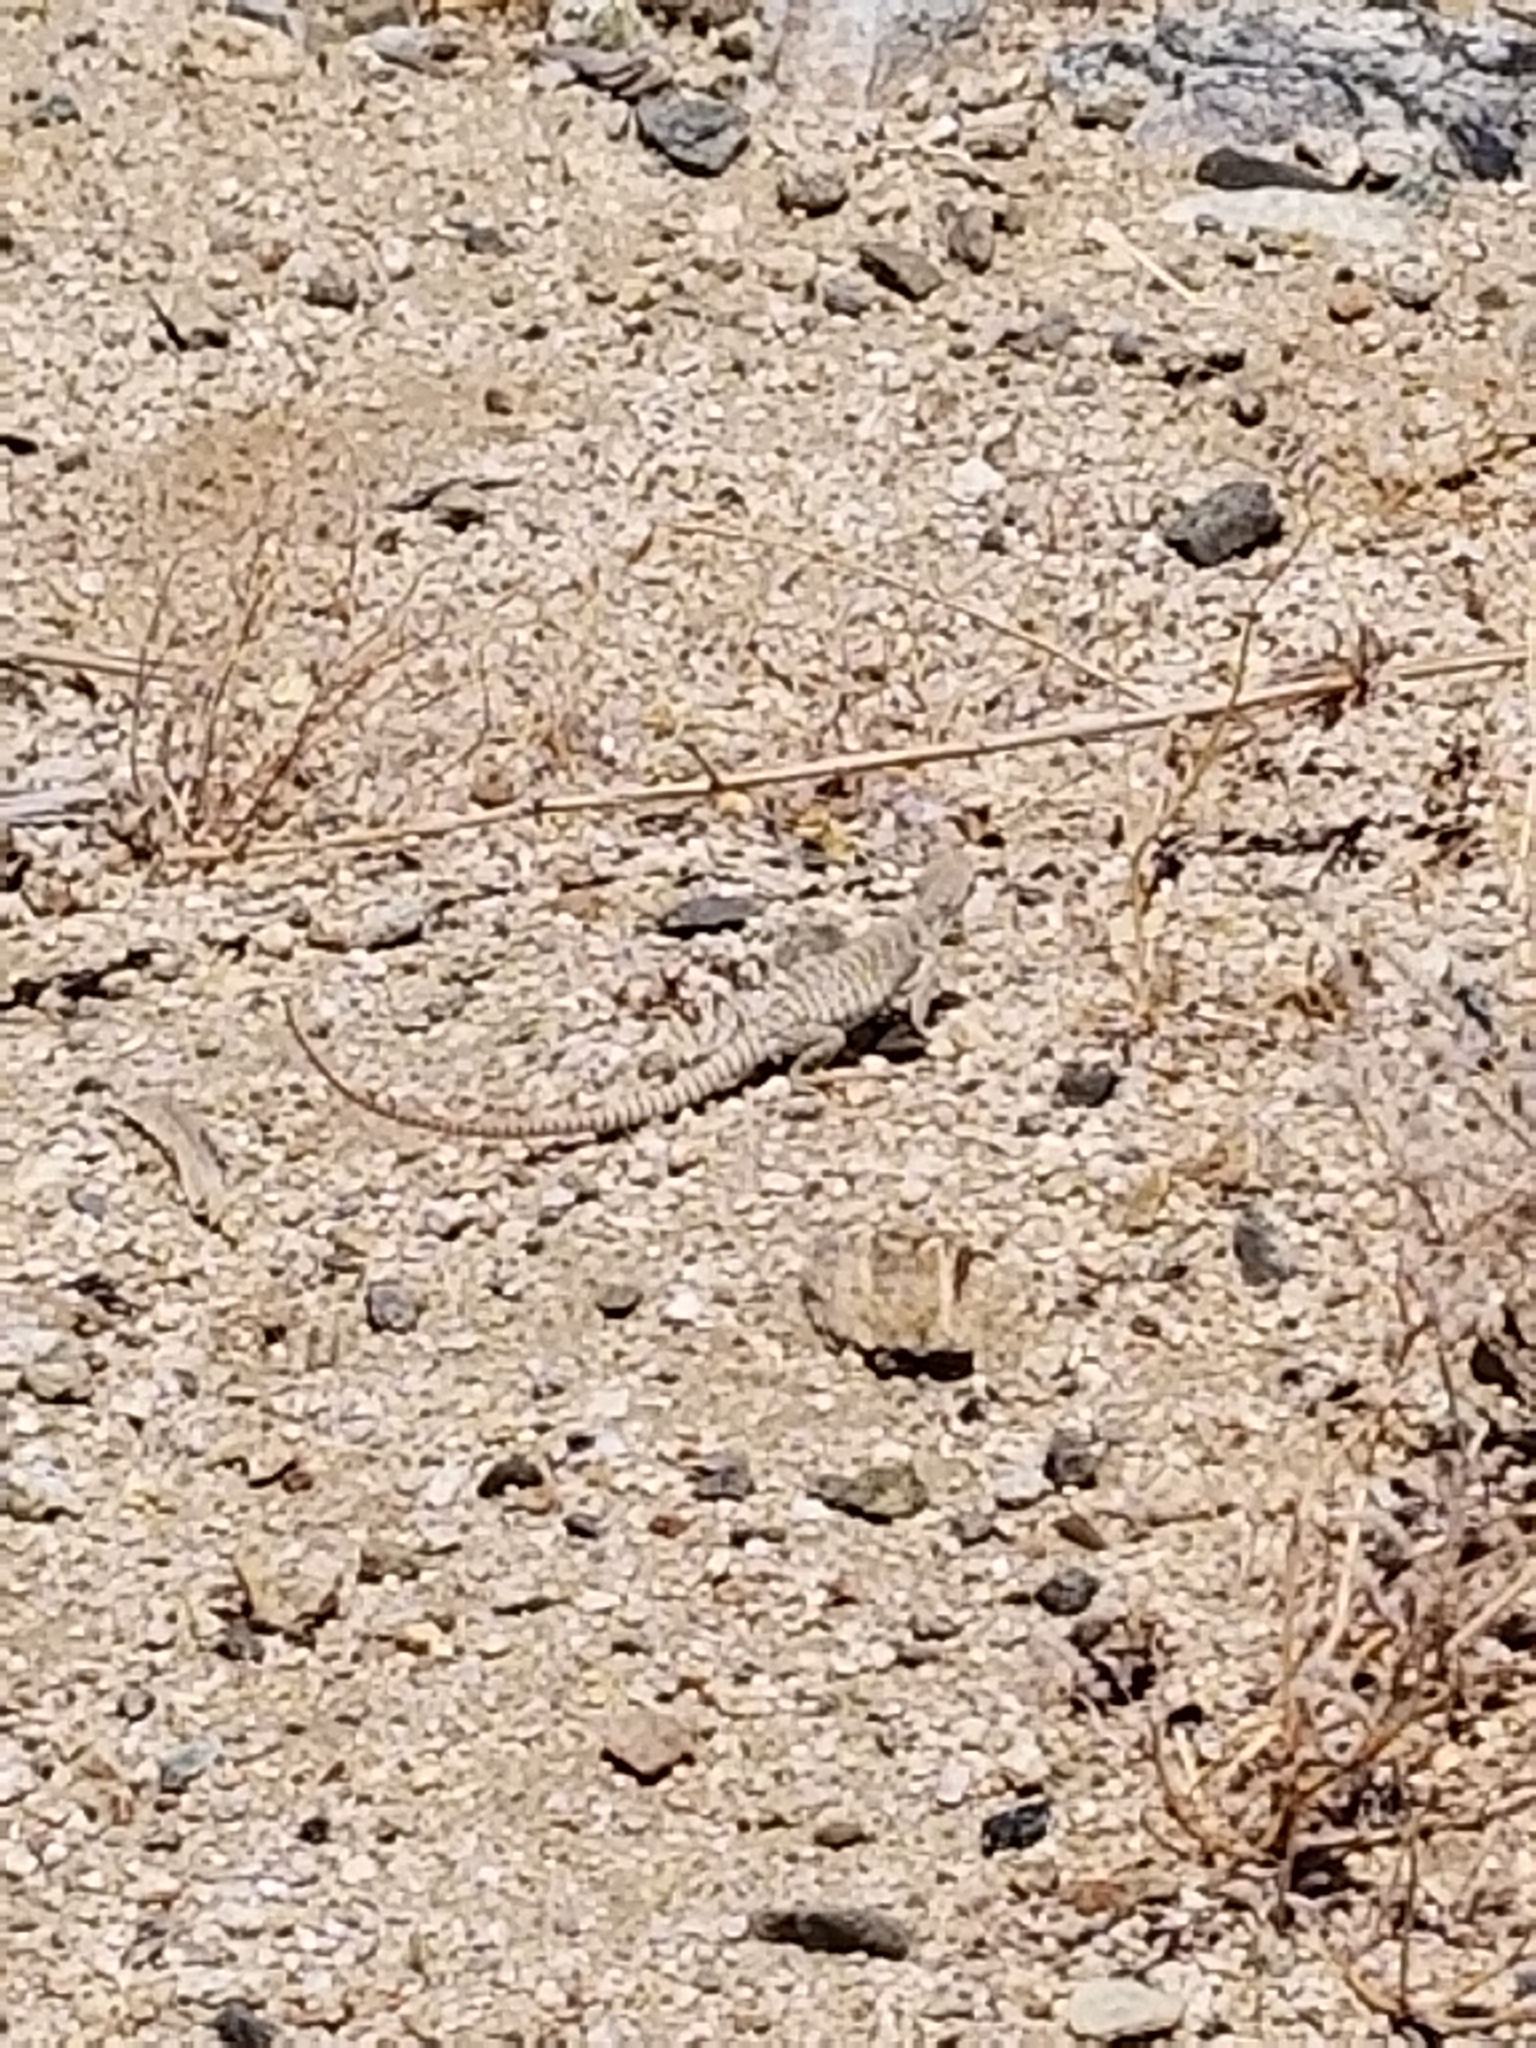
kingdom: Animalia
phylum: Chordata
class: Squamata
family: Iguanidae
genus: Dipsosaurus
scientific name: Dipsosaurus dorsalis
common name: Desert iguana
